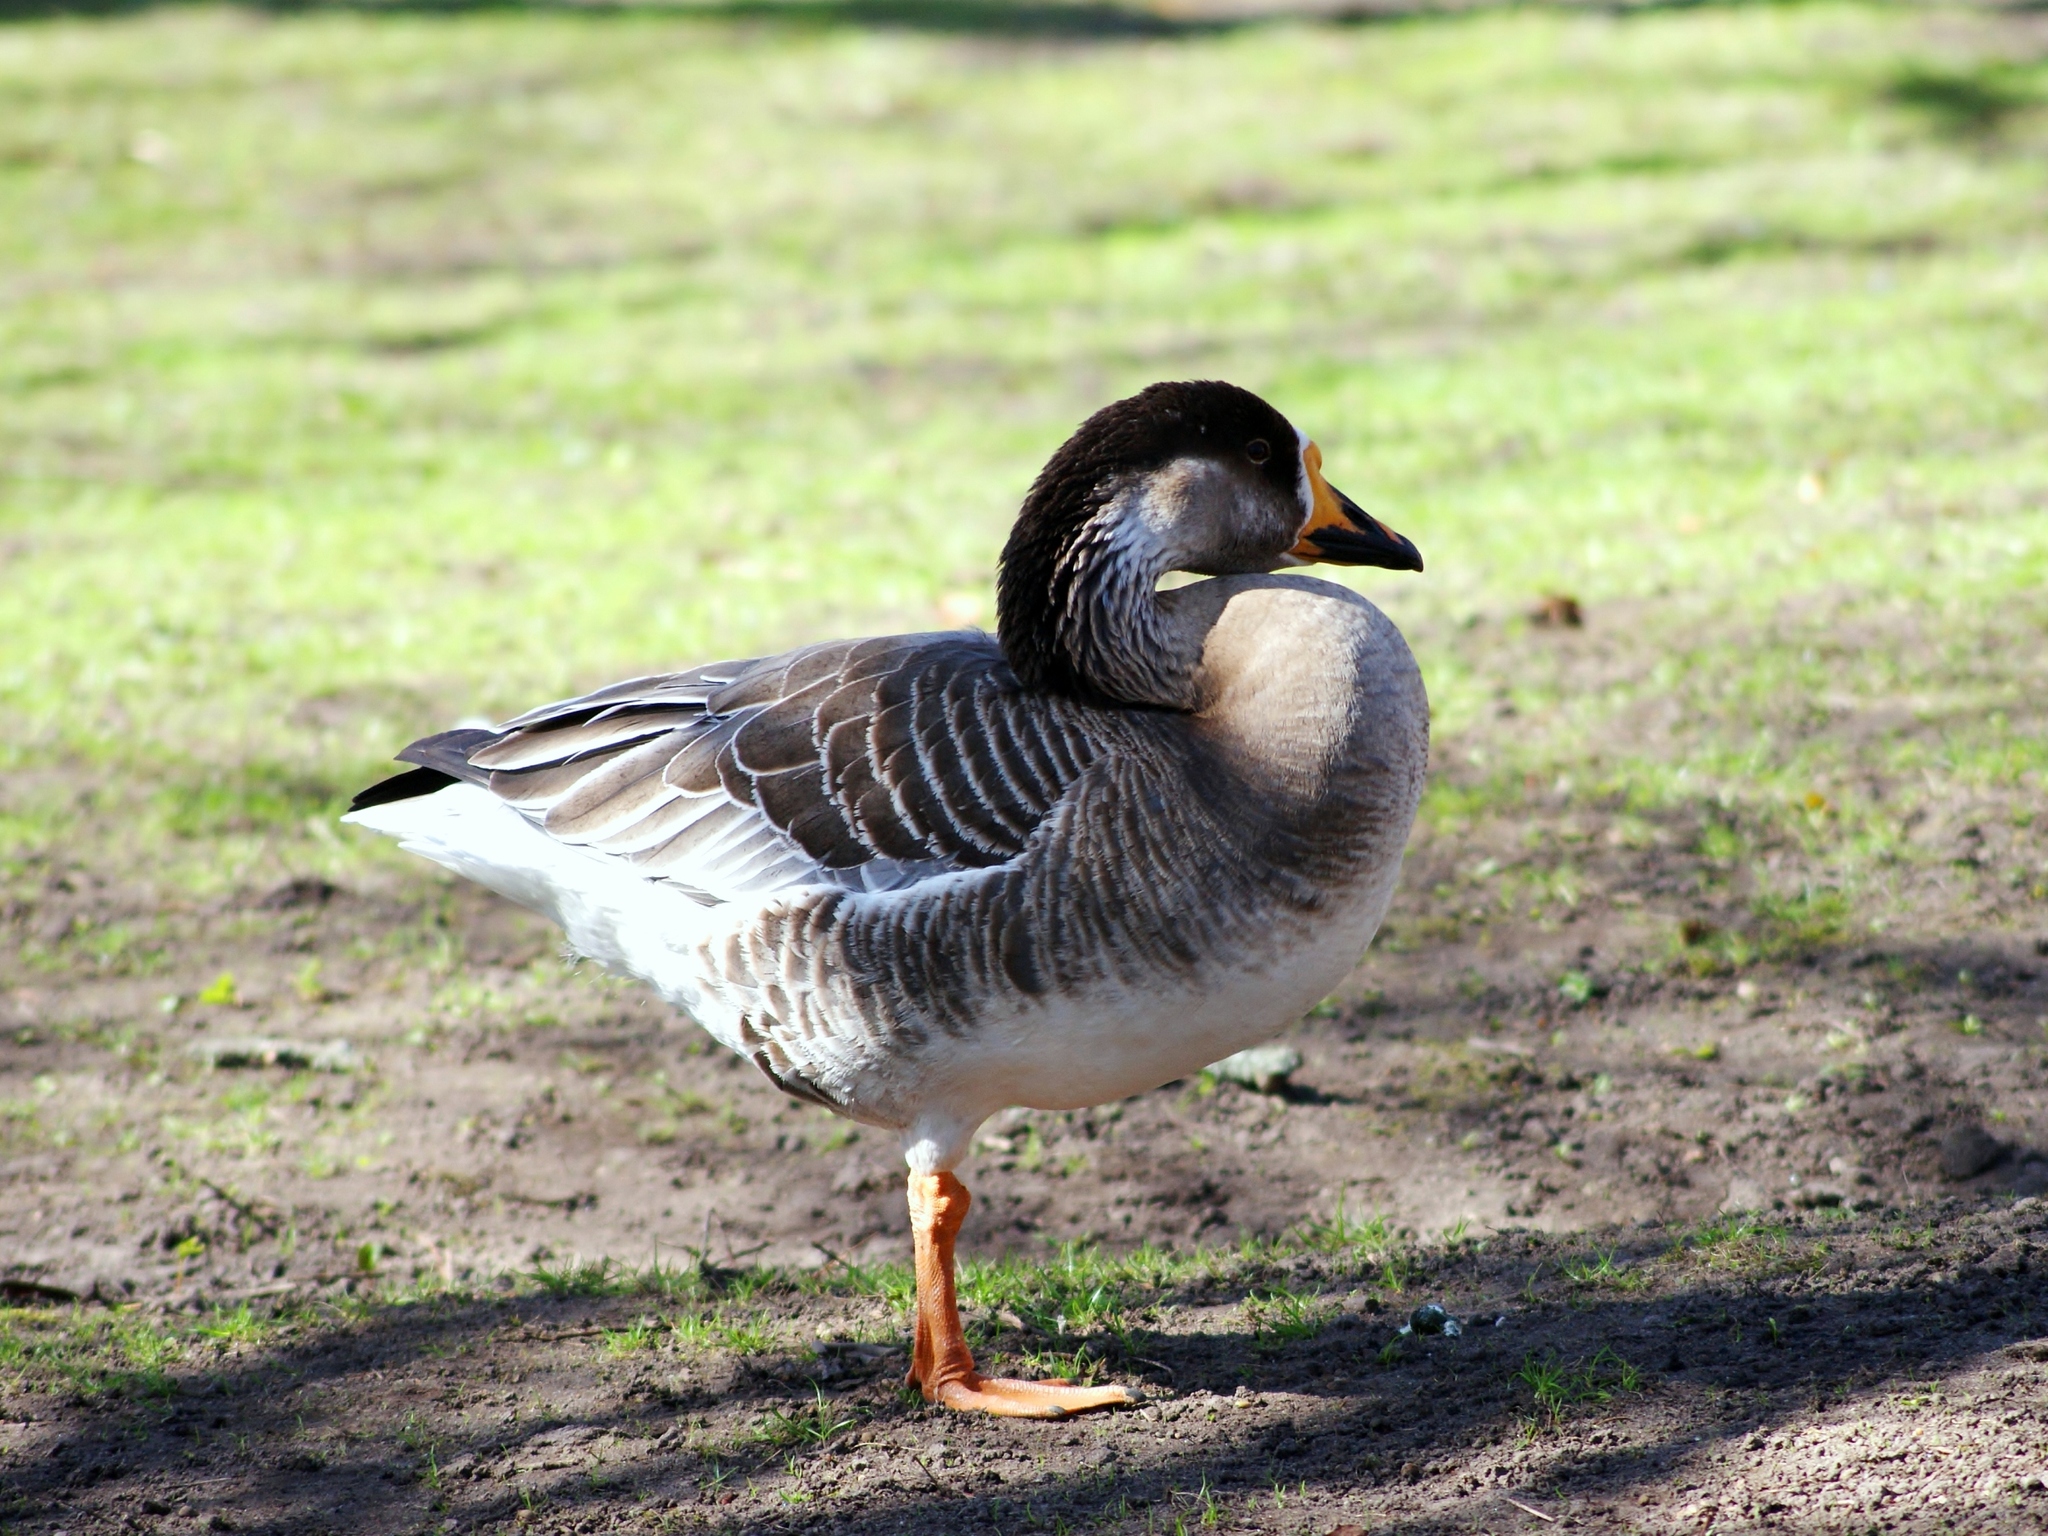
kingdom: Animalia
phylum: Chordata
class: Aves
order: Anseriformes
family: Anatidae
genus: Anser
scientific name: Anser
